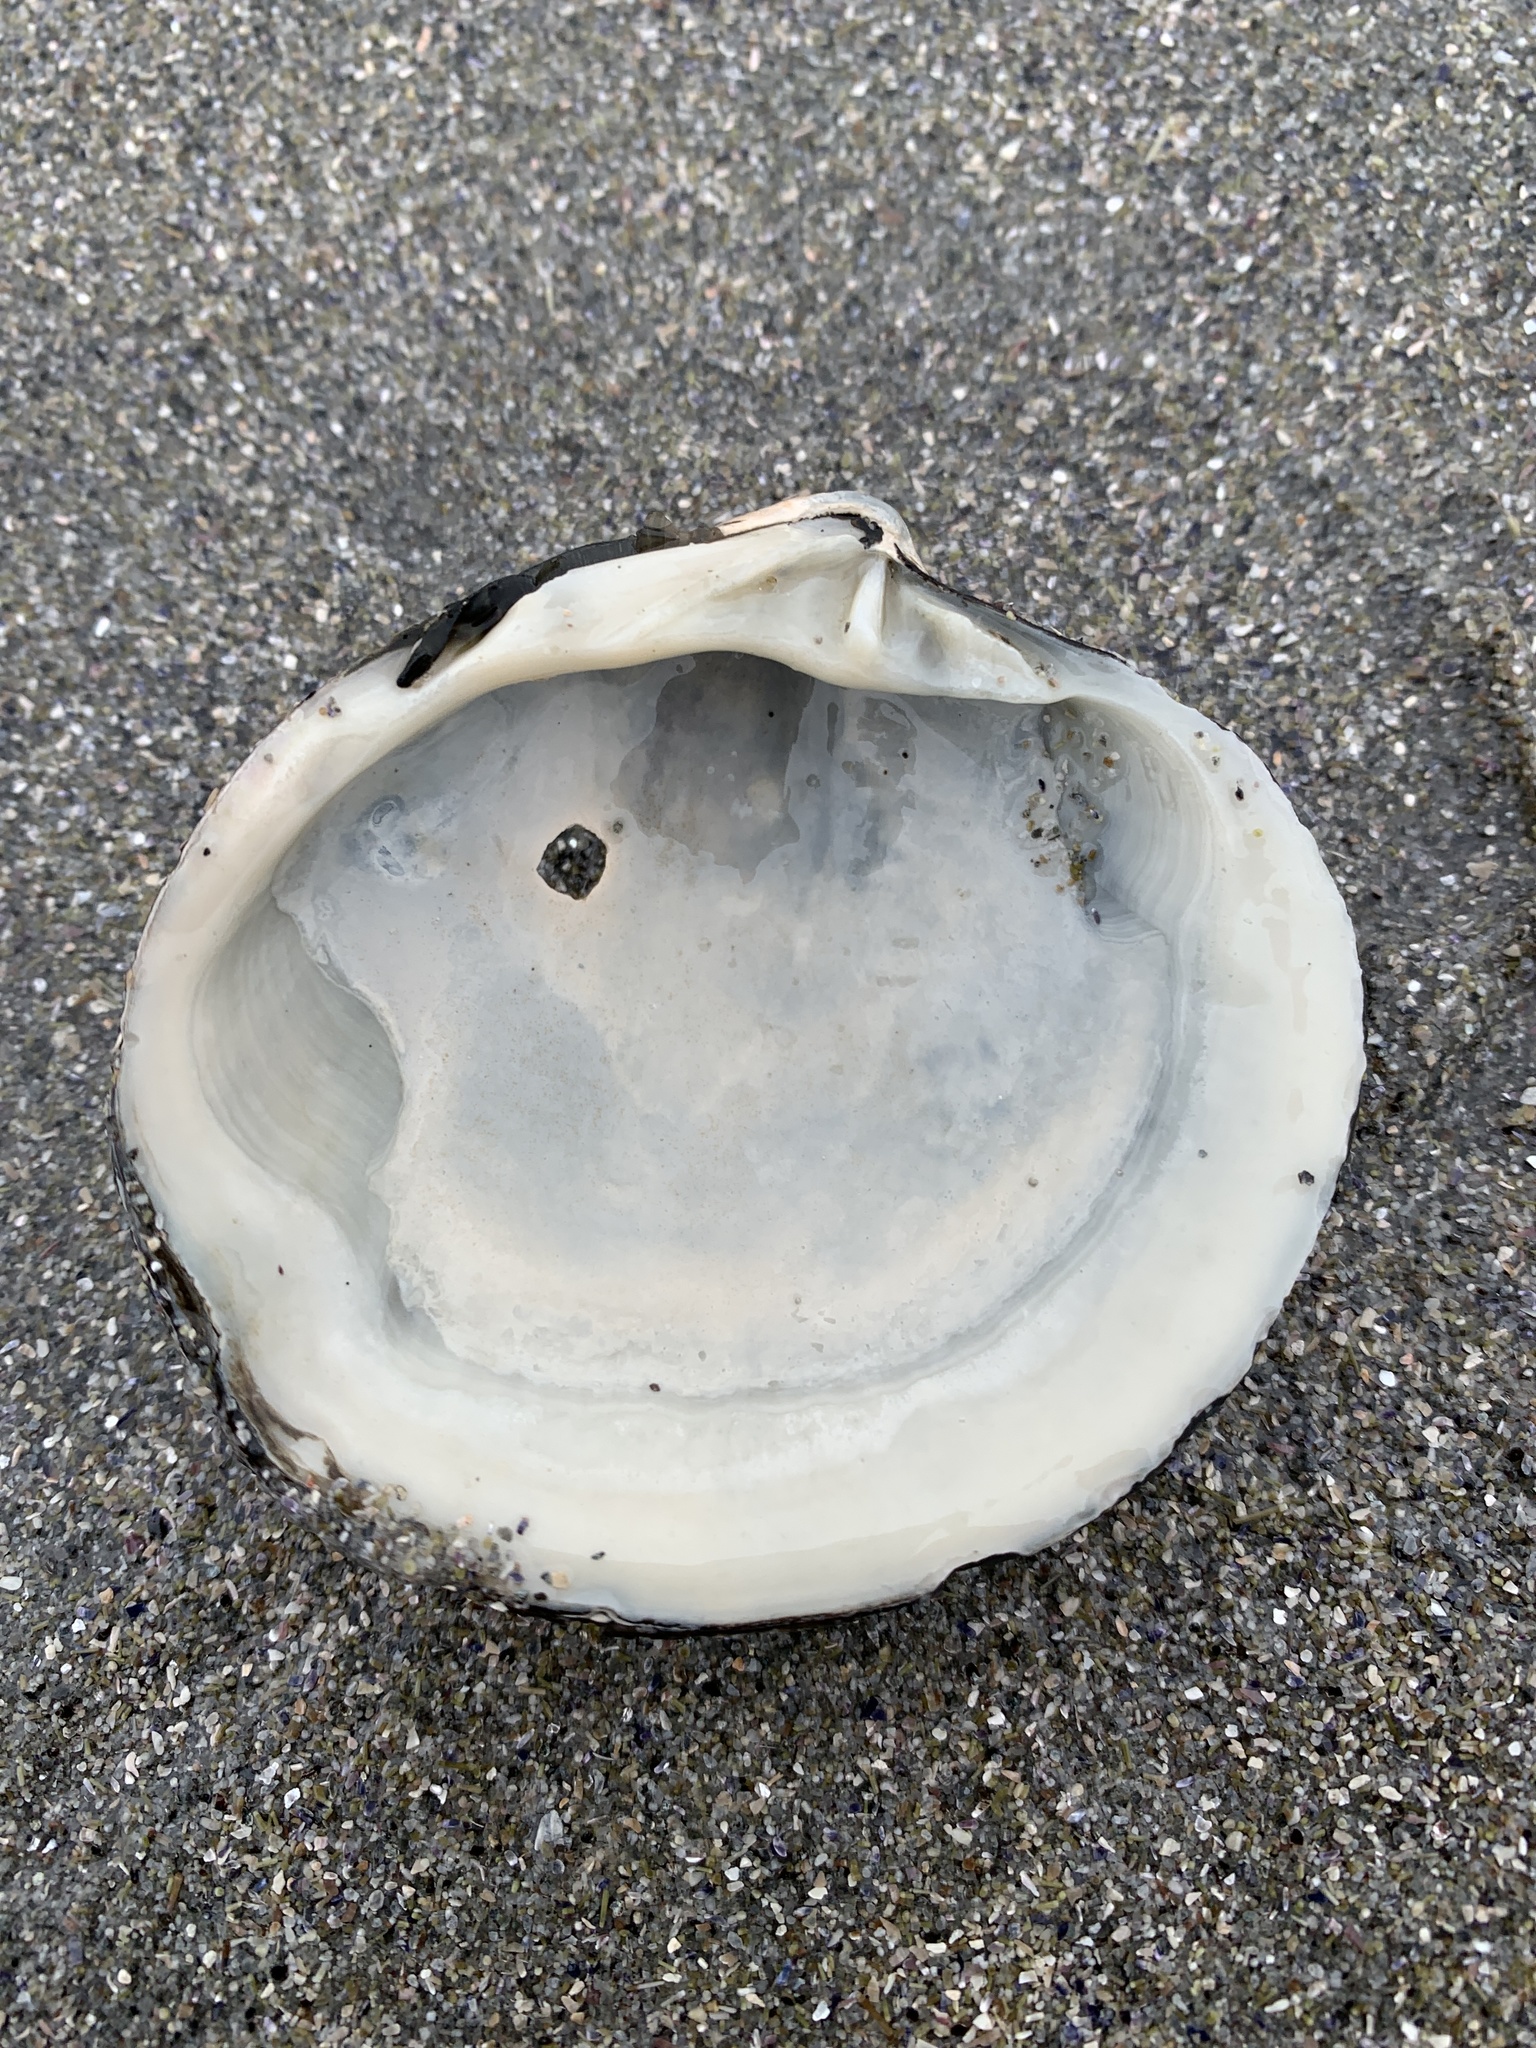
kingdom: Animalia
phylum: Mollusca
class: Bivalvia
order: Venerida
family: Arcticidae
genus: Arctica
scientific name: Arctica islandica
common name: Icelandic cyprine
